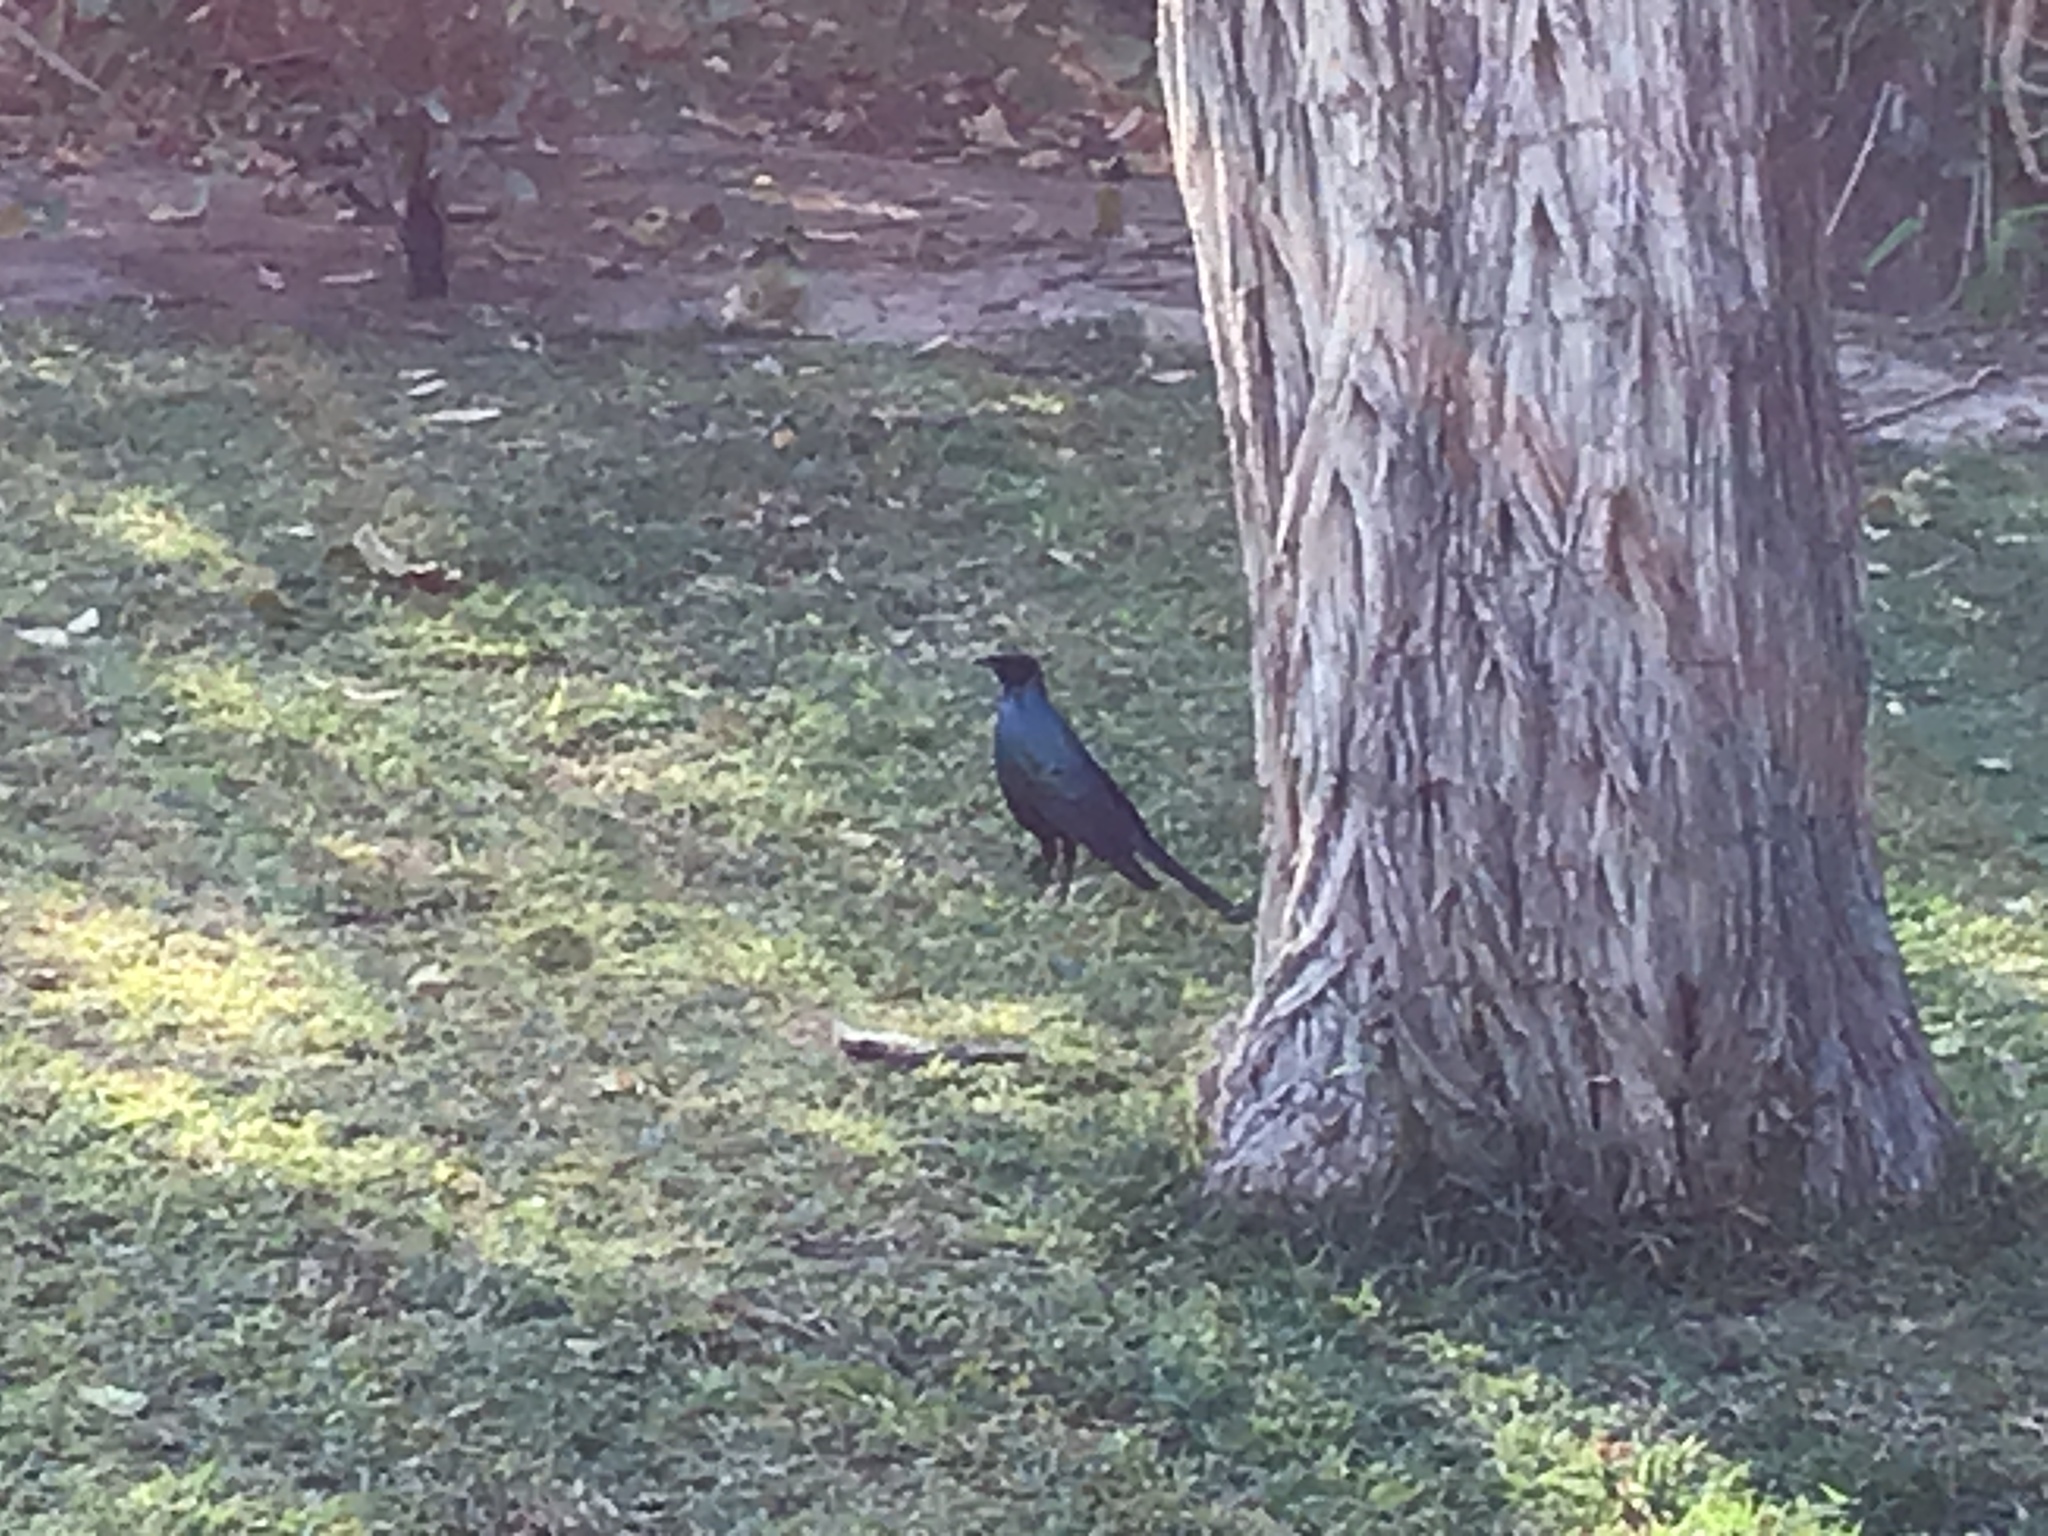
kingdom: Animalia
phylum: Chordata
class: Aves
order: Passeriformes
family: Sturnidae
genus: Lamprotornis
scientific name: Lamprotornis australis
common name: Burchell's starling
